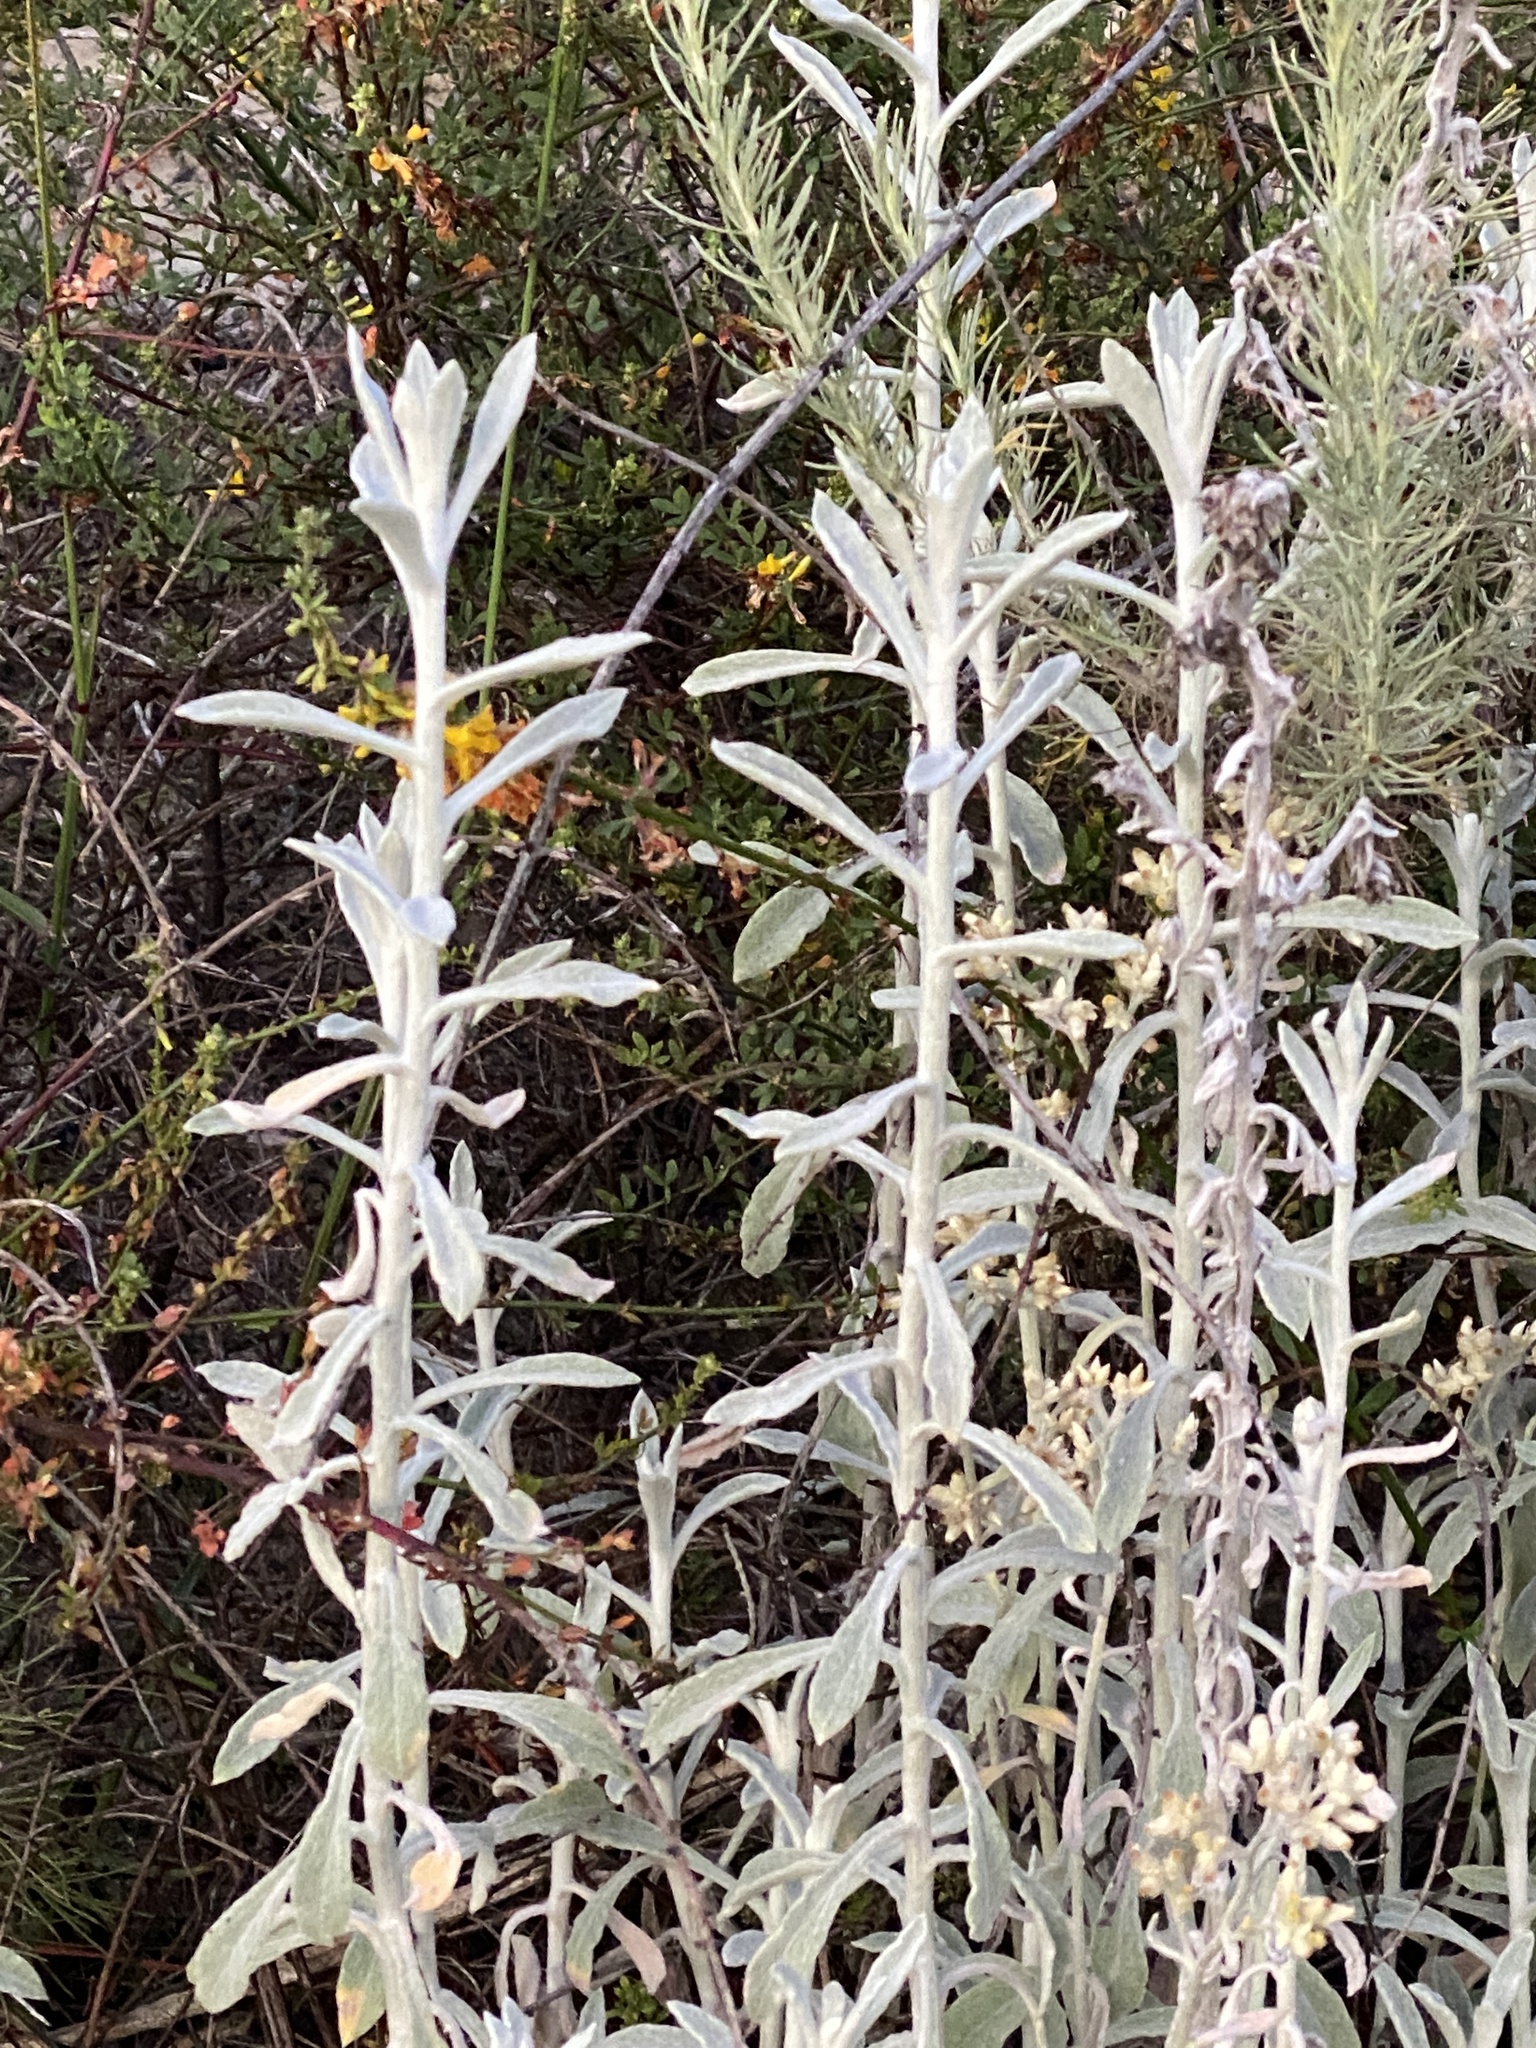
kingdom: Plantae
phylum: Tracheophyta
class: Magnoliopsida
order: Asterales
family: Asteraceae
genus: Pseudognaphalium
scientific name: Pseudognaphalium microcephalum
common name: San diego rabbit-tobacco
